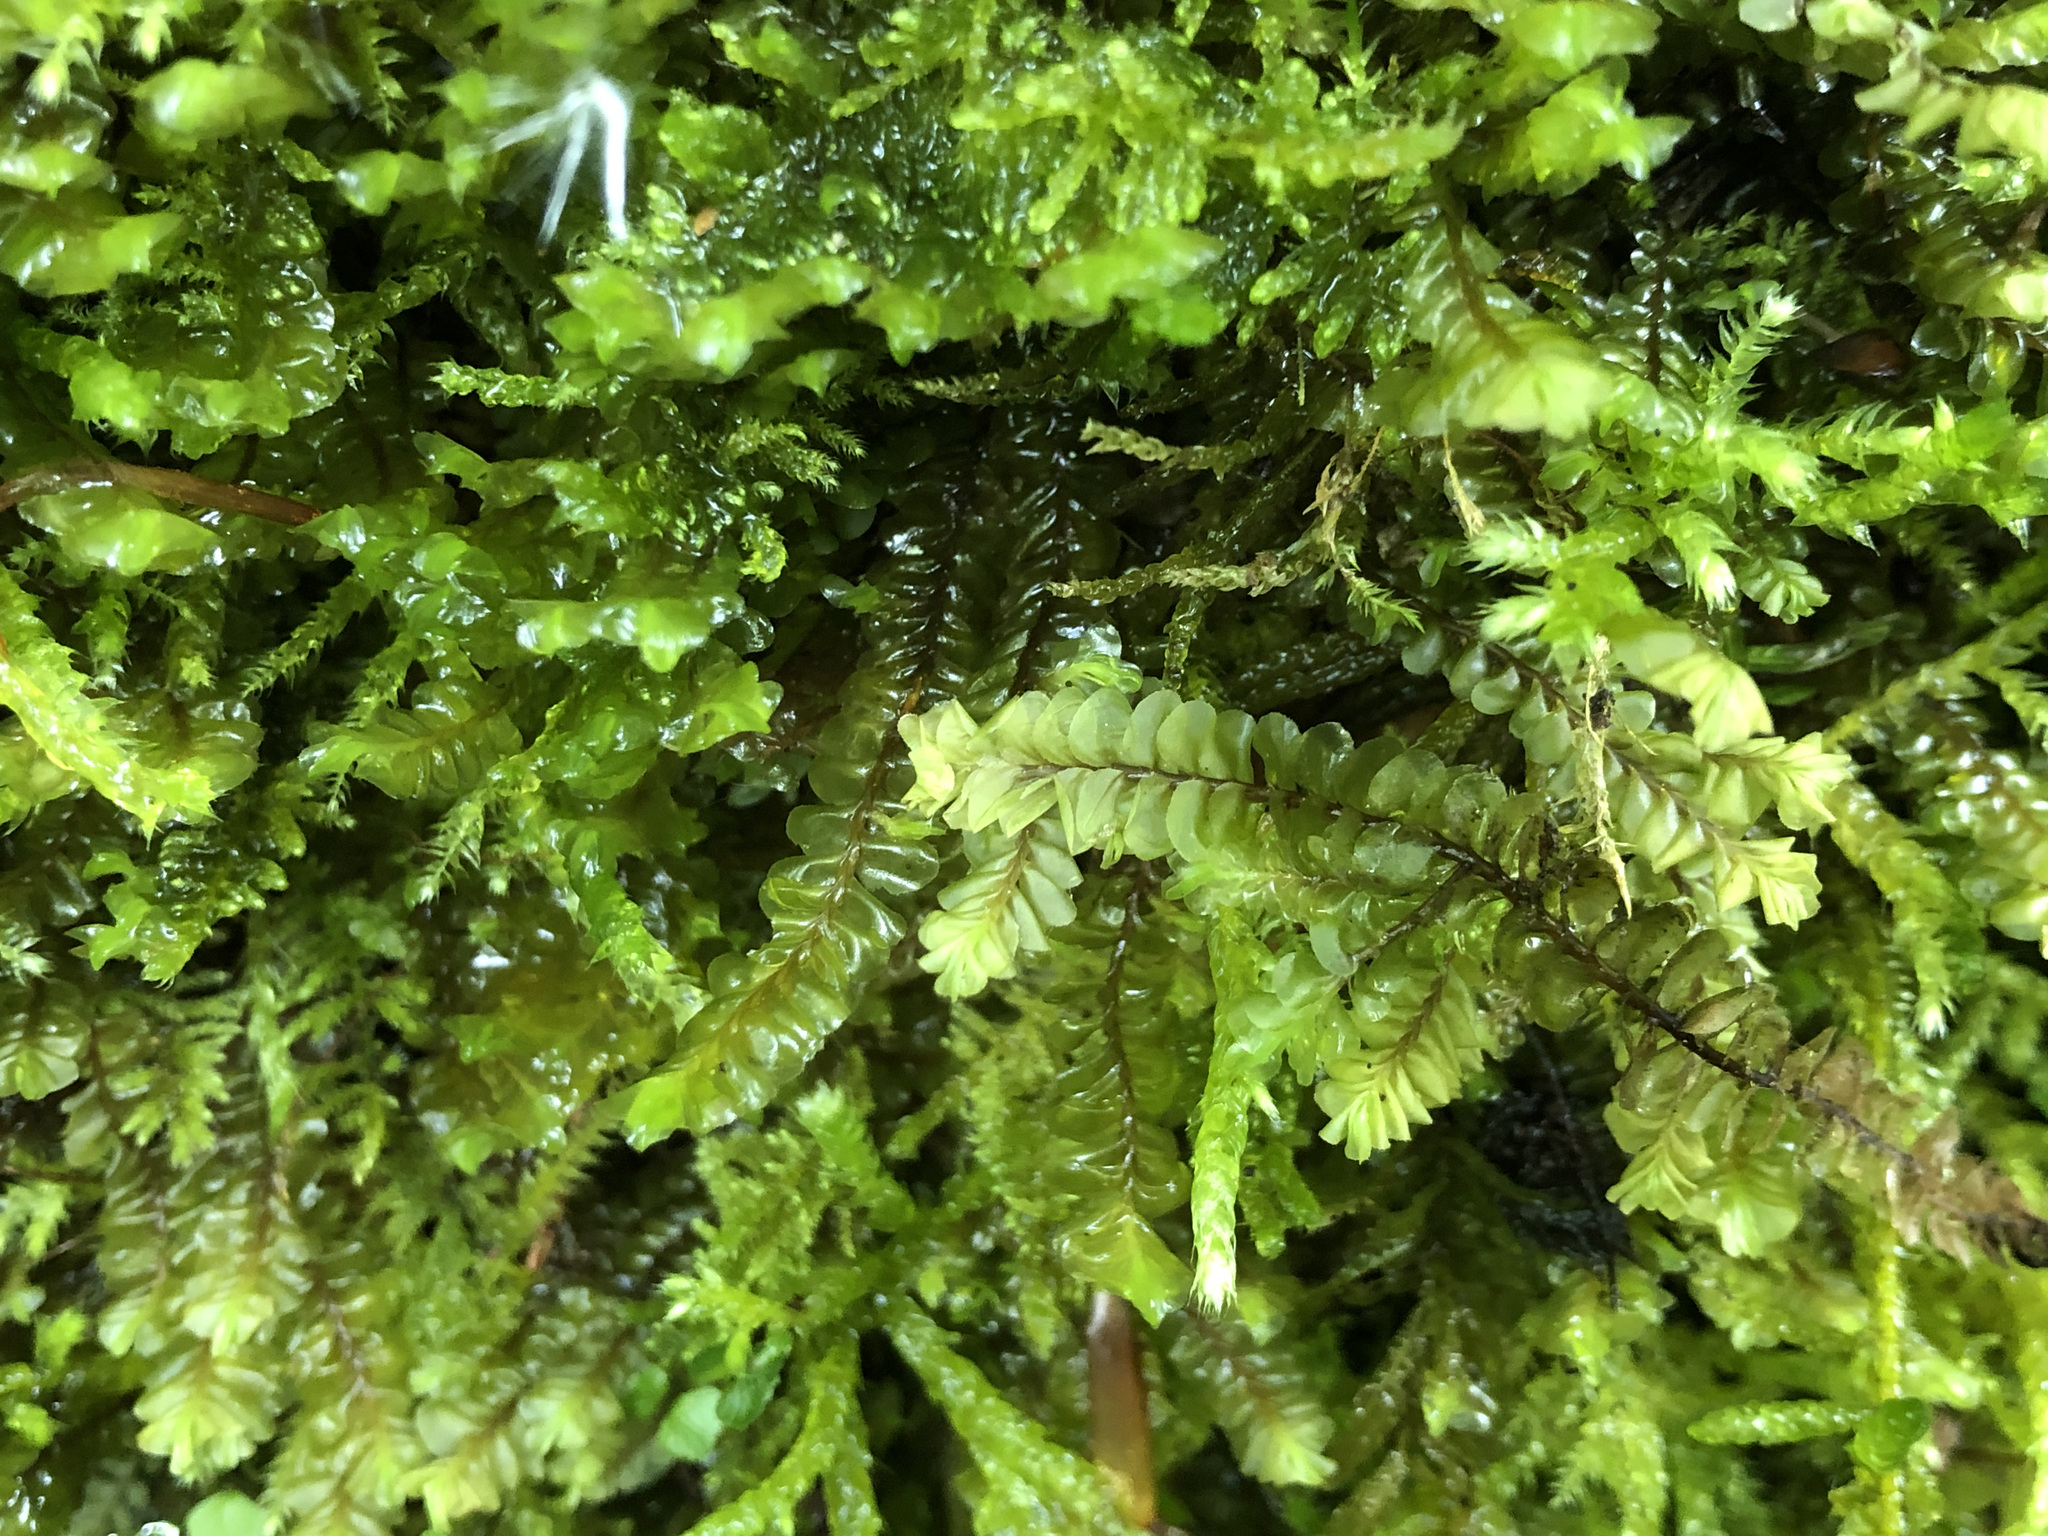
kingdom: Plantae
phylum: Marchantiophyta
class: Jungermanniopsida
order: Jungermanniales
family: Plagiochilaceae
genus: Plagiochila
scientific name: Plagiochila asplenioides
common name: Greater featherwort
